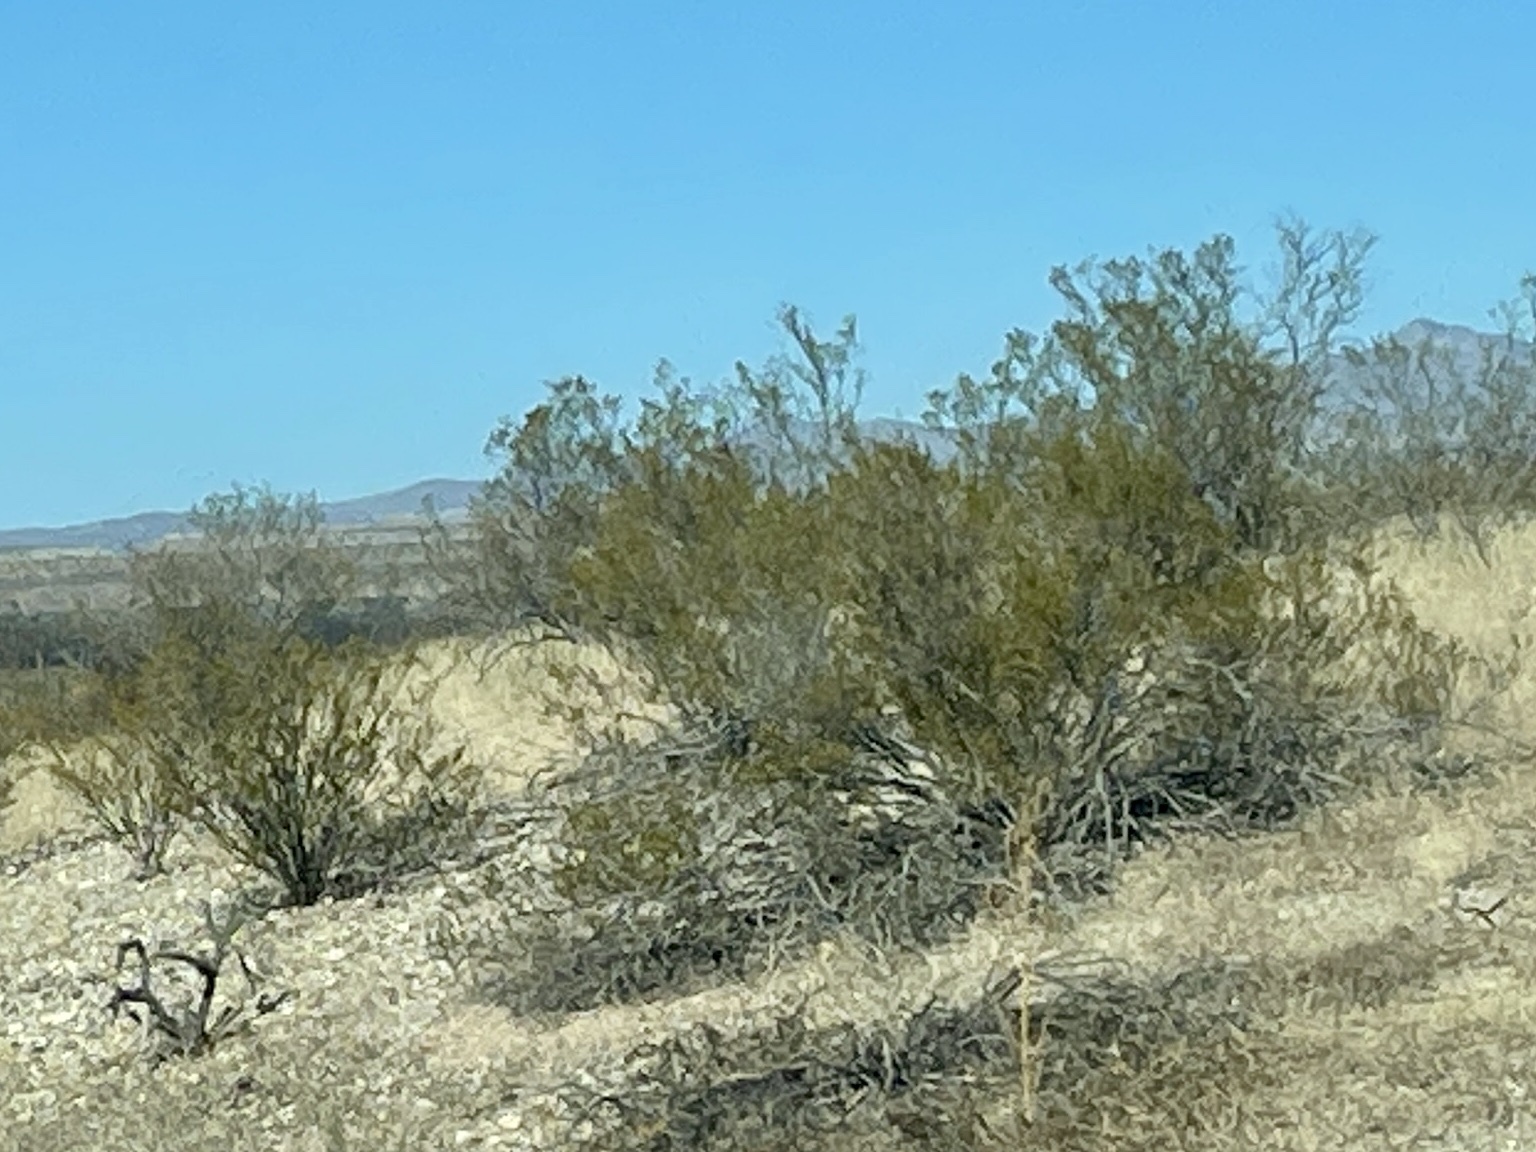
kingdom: Plantae
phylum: Tracheophyta
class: Magnoliopsida
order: Zygophyllales
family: Zygophyllaceae
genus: Larrea
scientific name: Larrea tridentata
